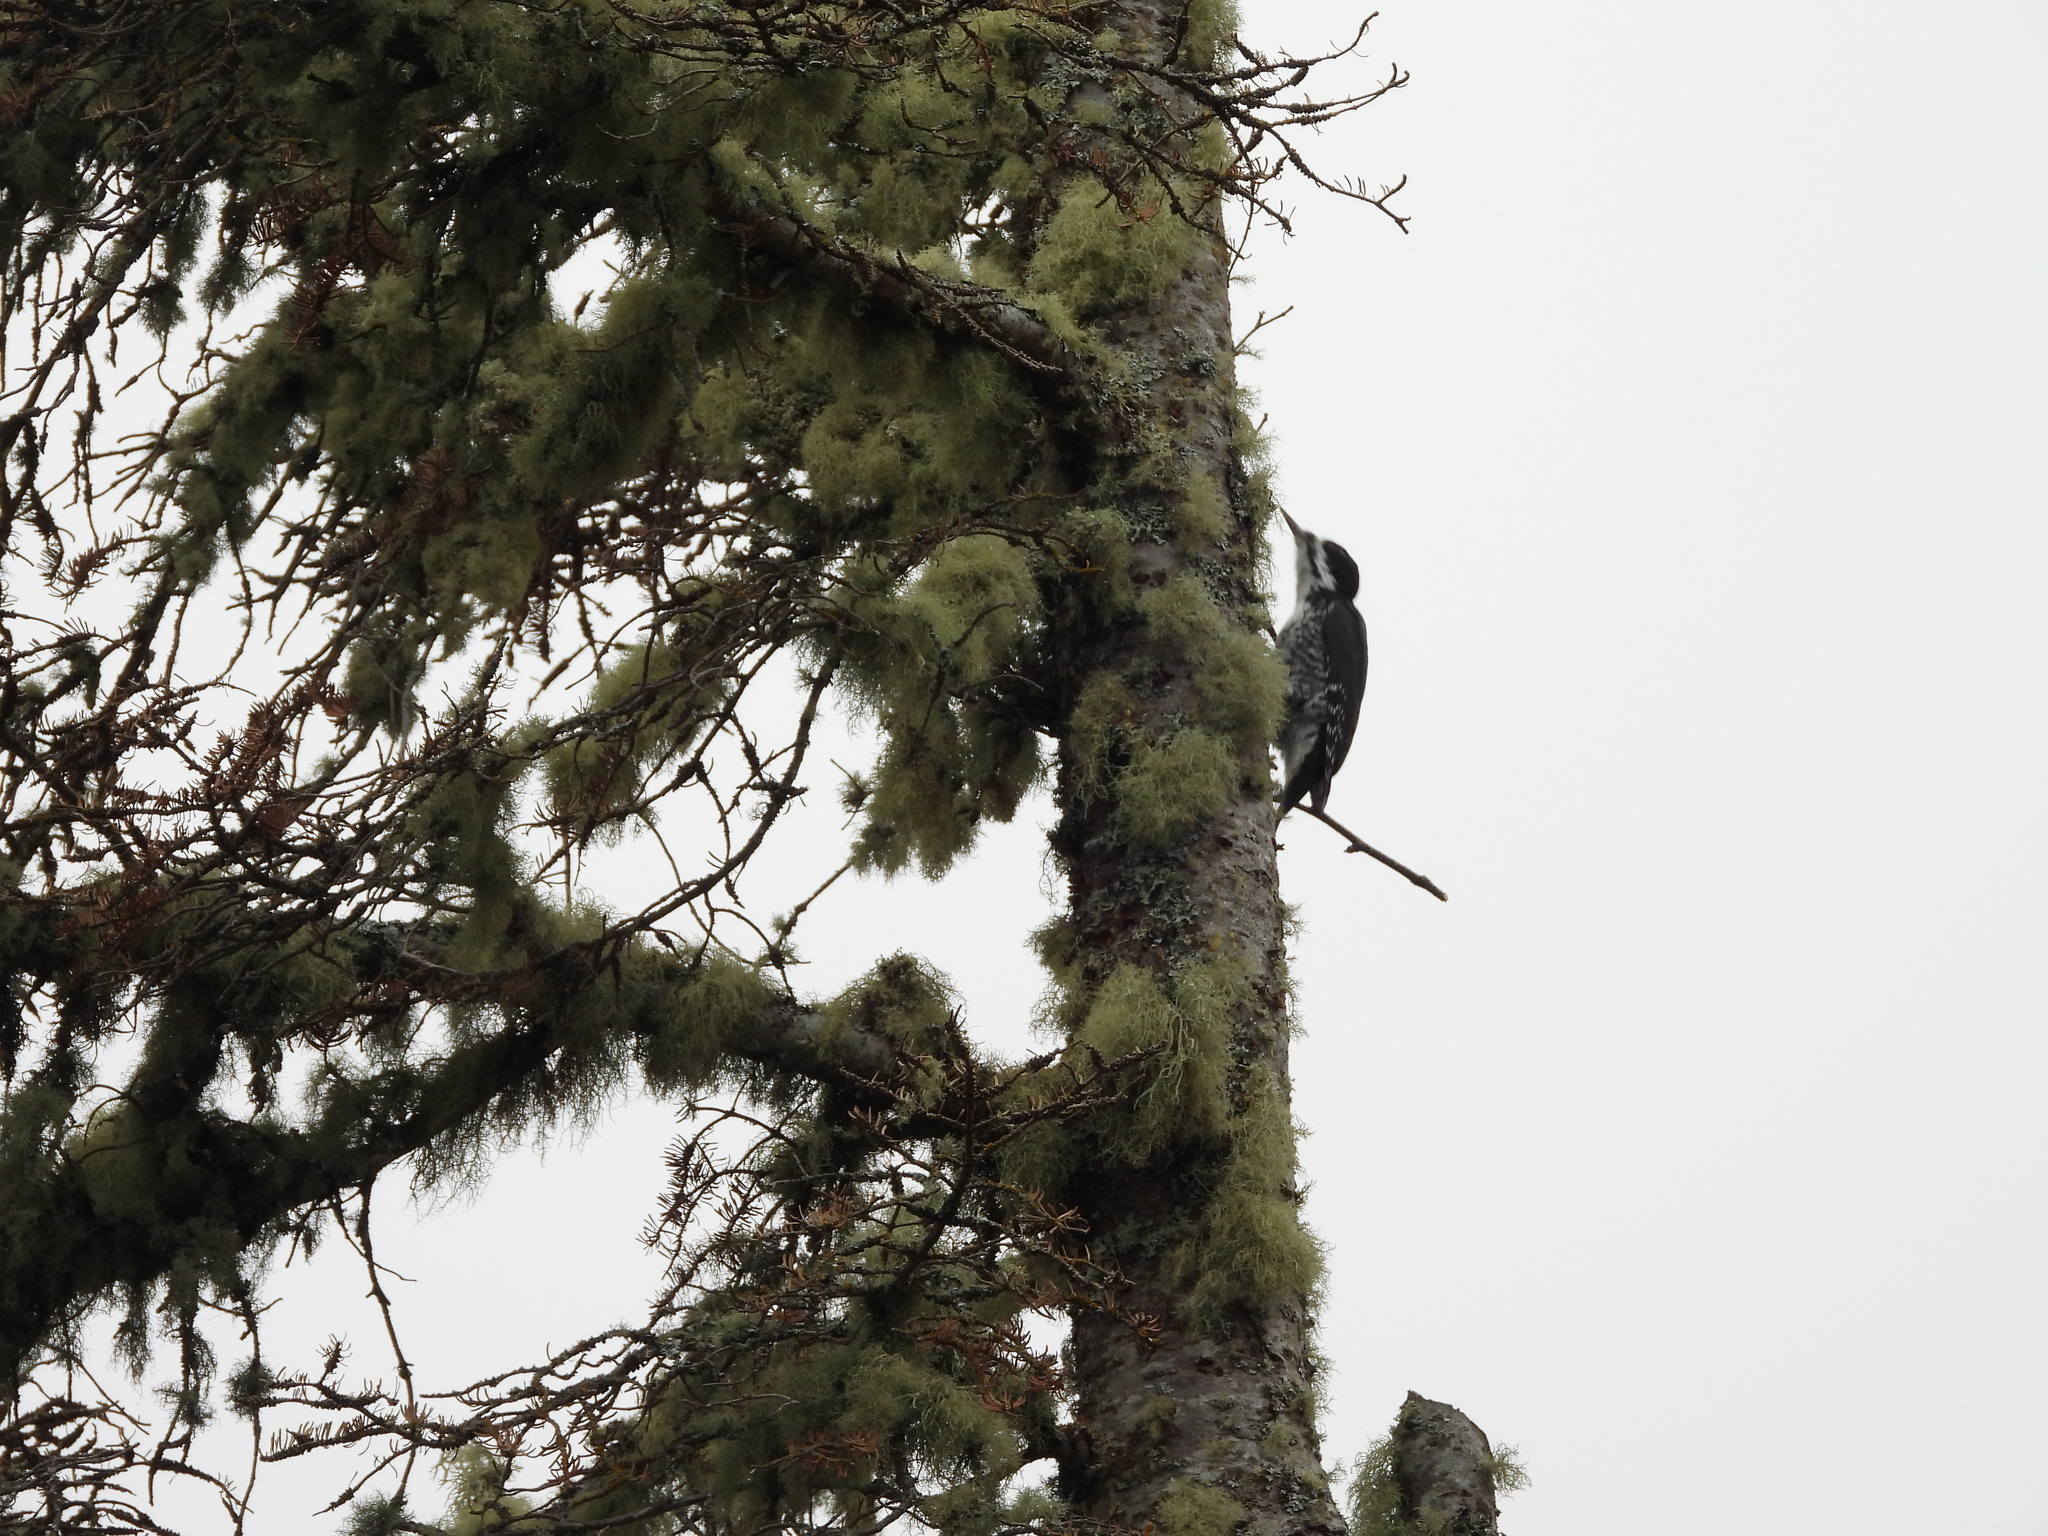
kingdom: Animalia
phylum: Chordata
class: Aves
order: Piciformes
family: Picidae
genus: Picoides
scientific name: Picoides arcticus
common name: Black-backed woodpecker
